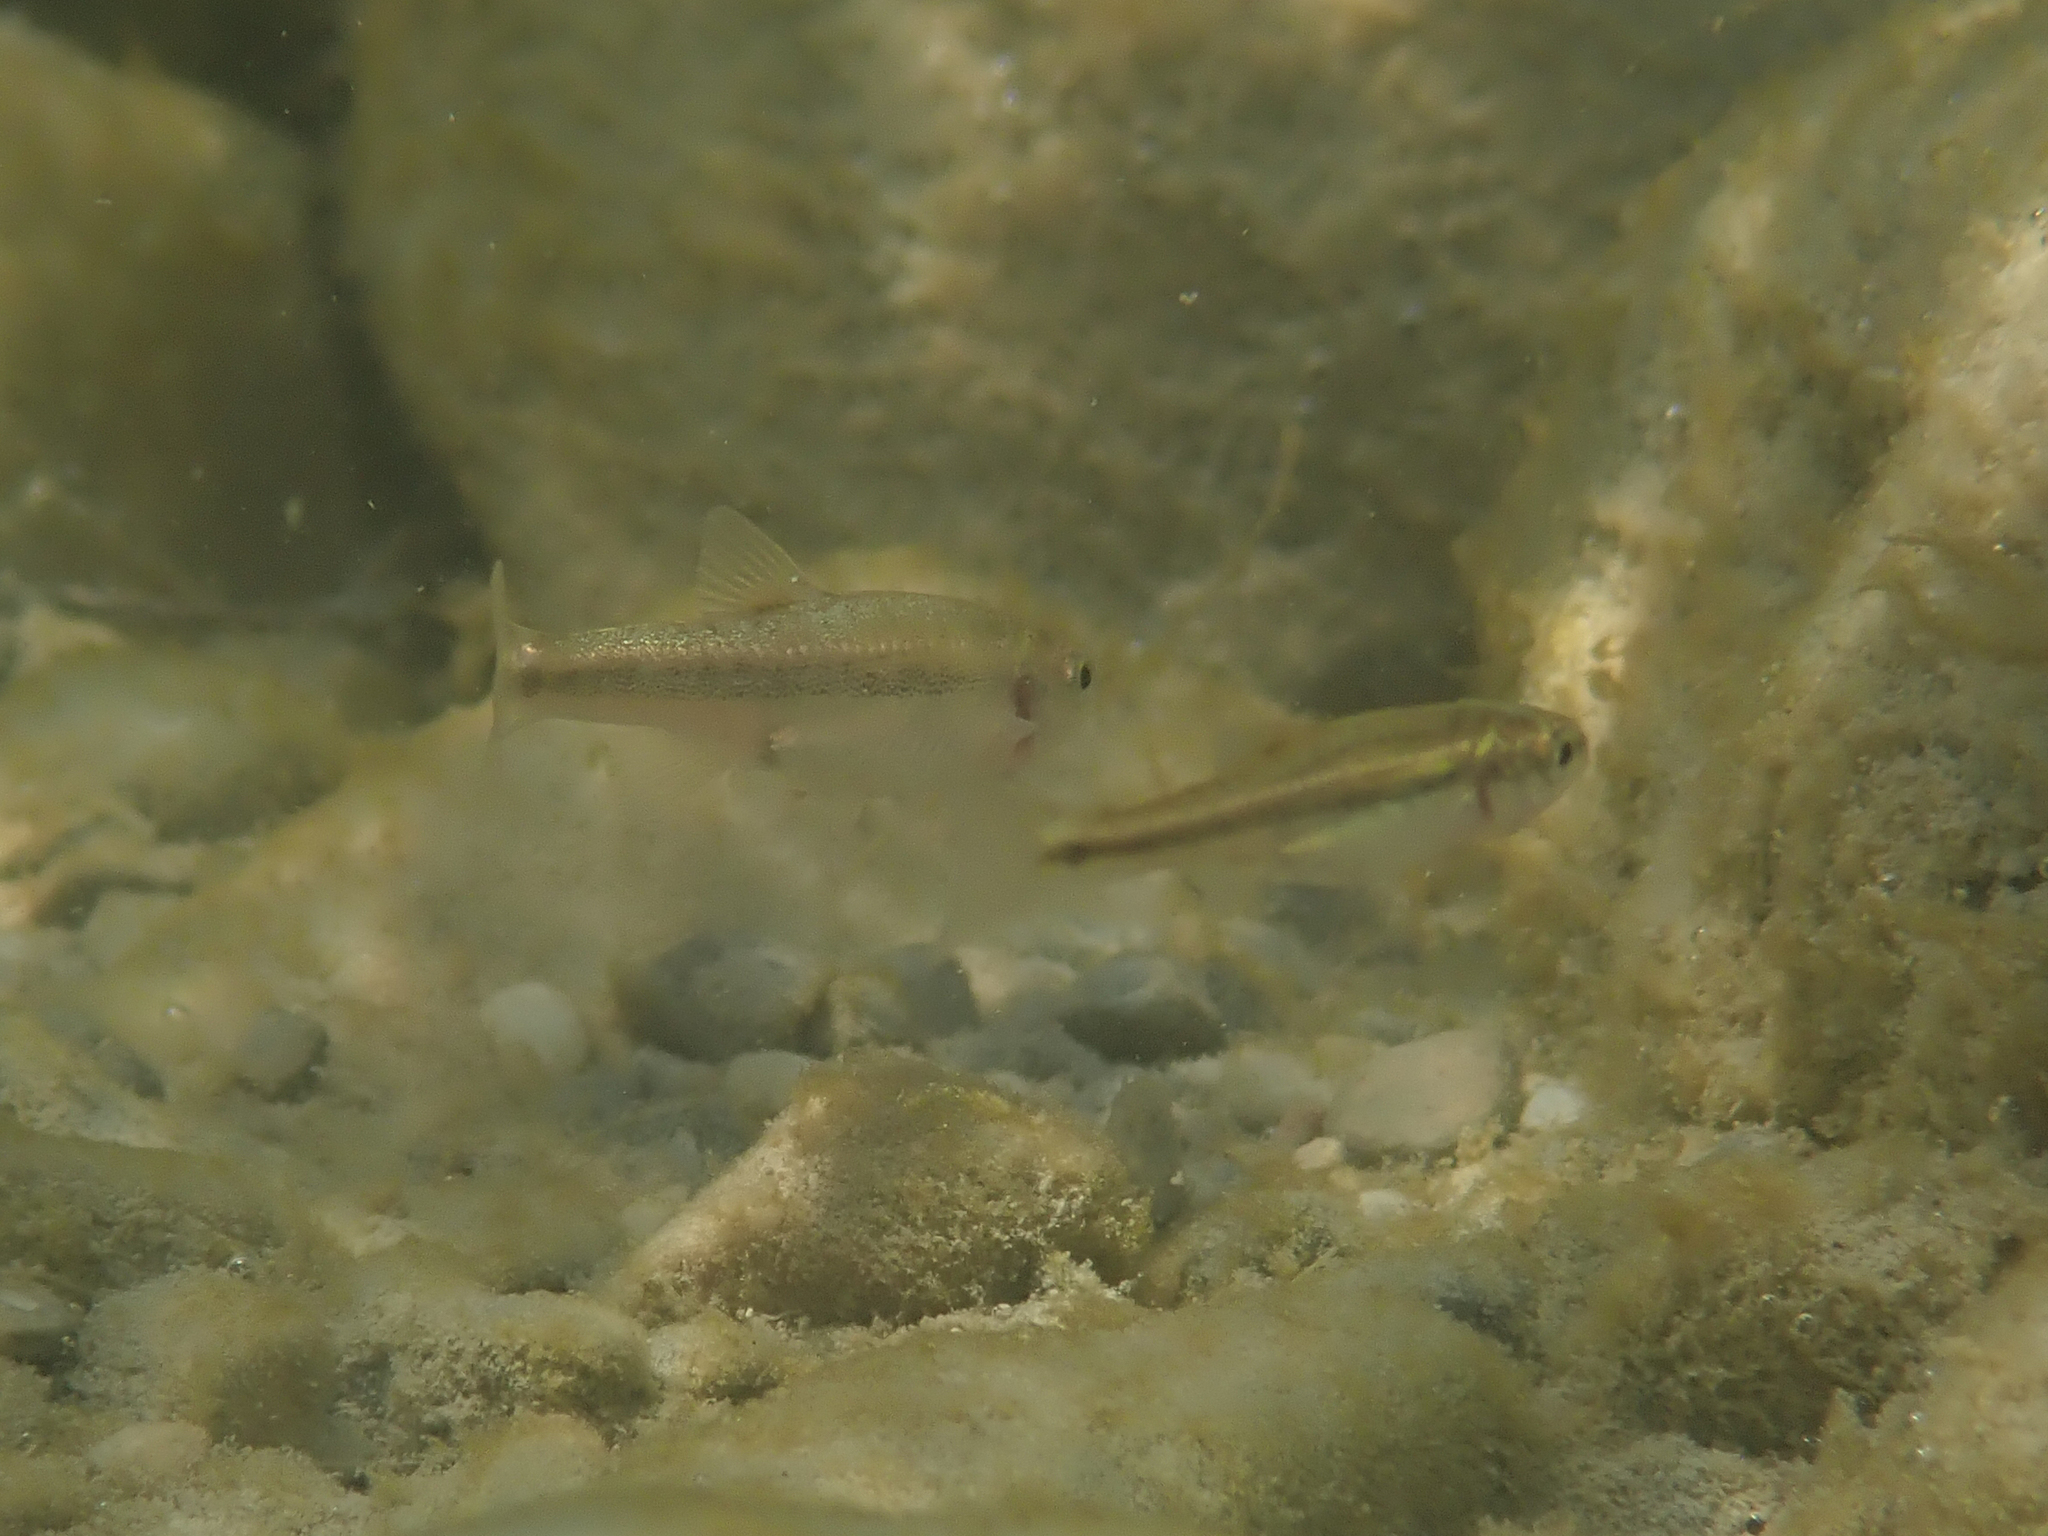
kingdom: Animalia
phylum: Chordata
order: Cypriniformes
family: Cyprinidae
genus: Phoxinus
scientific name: Phoxinus septimaniae
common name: Languedoc minnow
